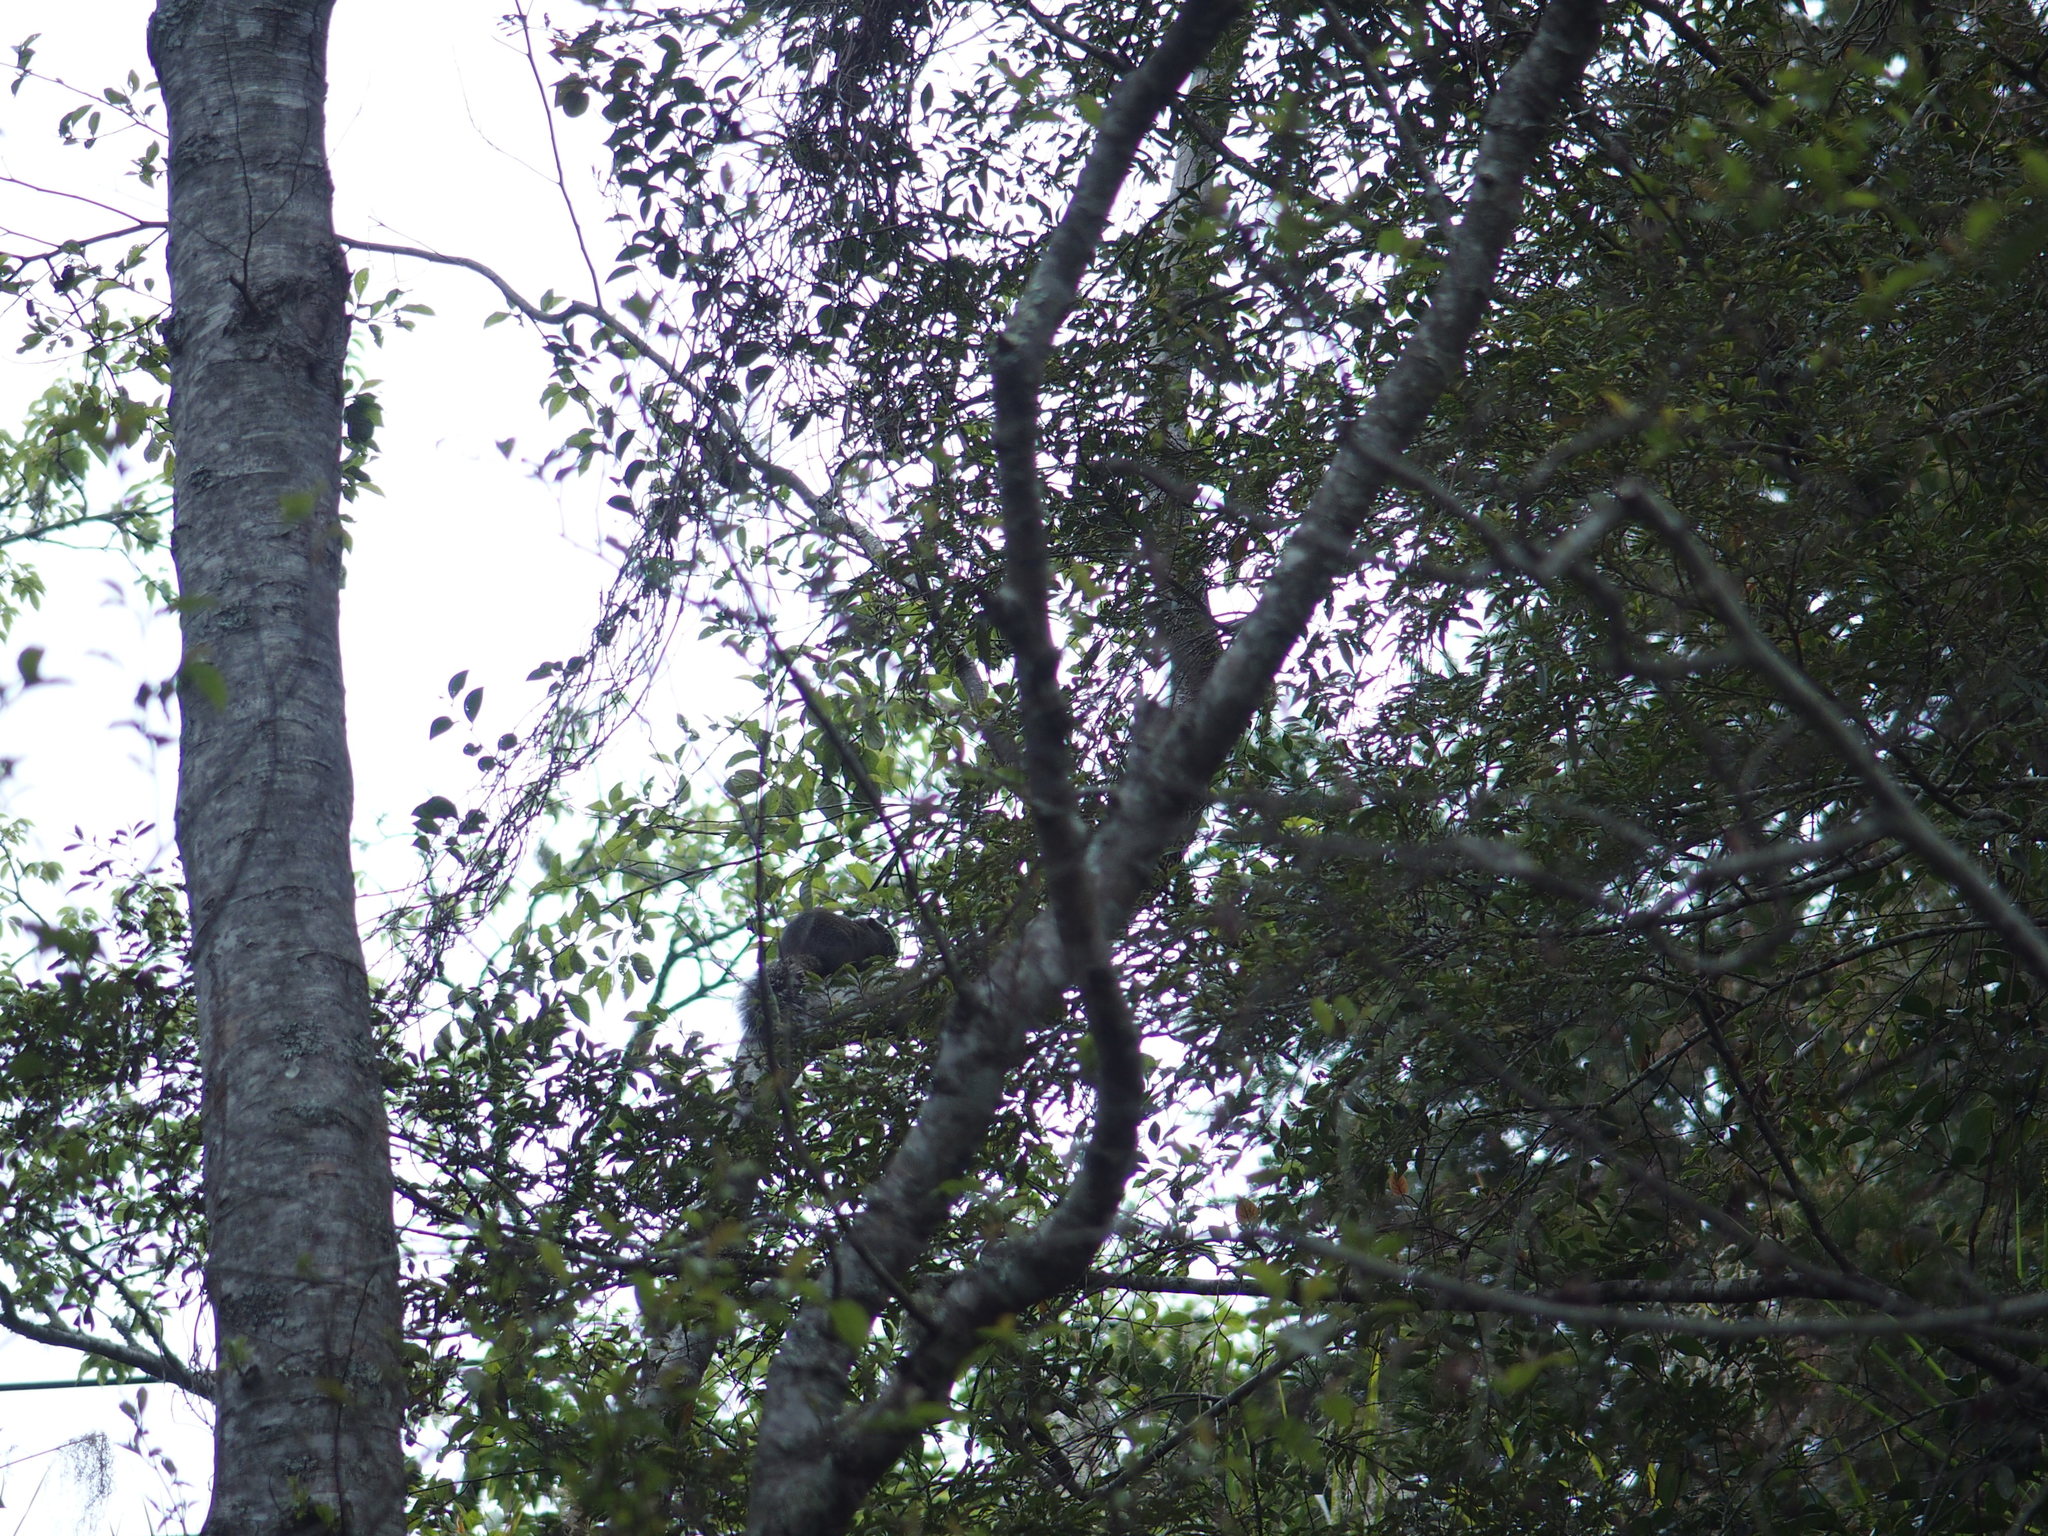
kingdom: Animalia
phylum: Chordata
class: Mammalia
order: Rodentia
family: Sciuridae
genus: Callosciurus
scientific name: Callosciurus erythraeus
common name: Pallas's squirrel
